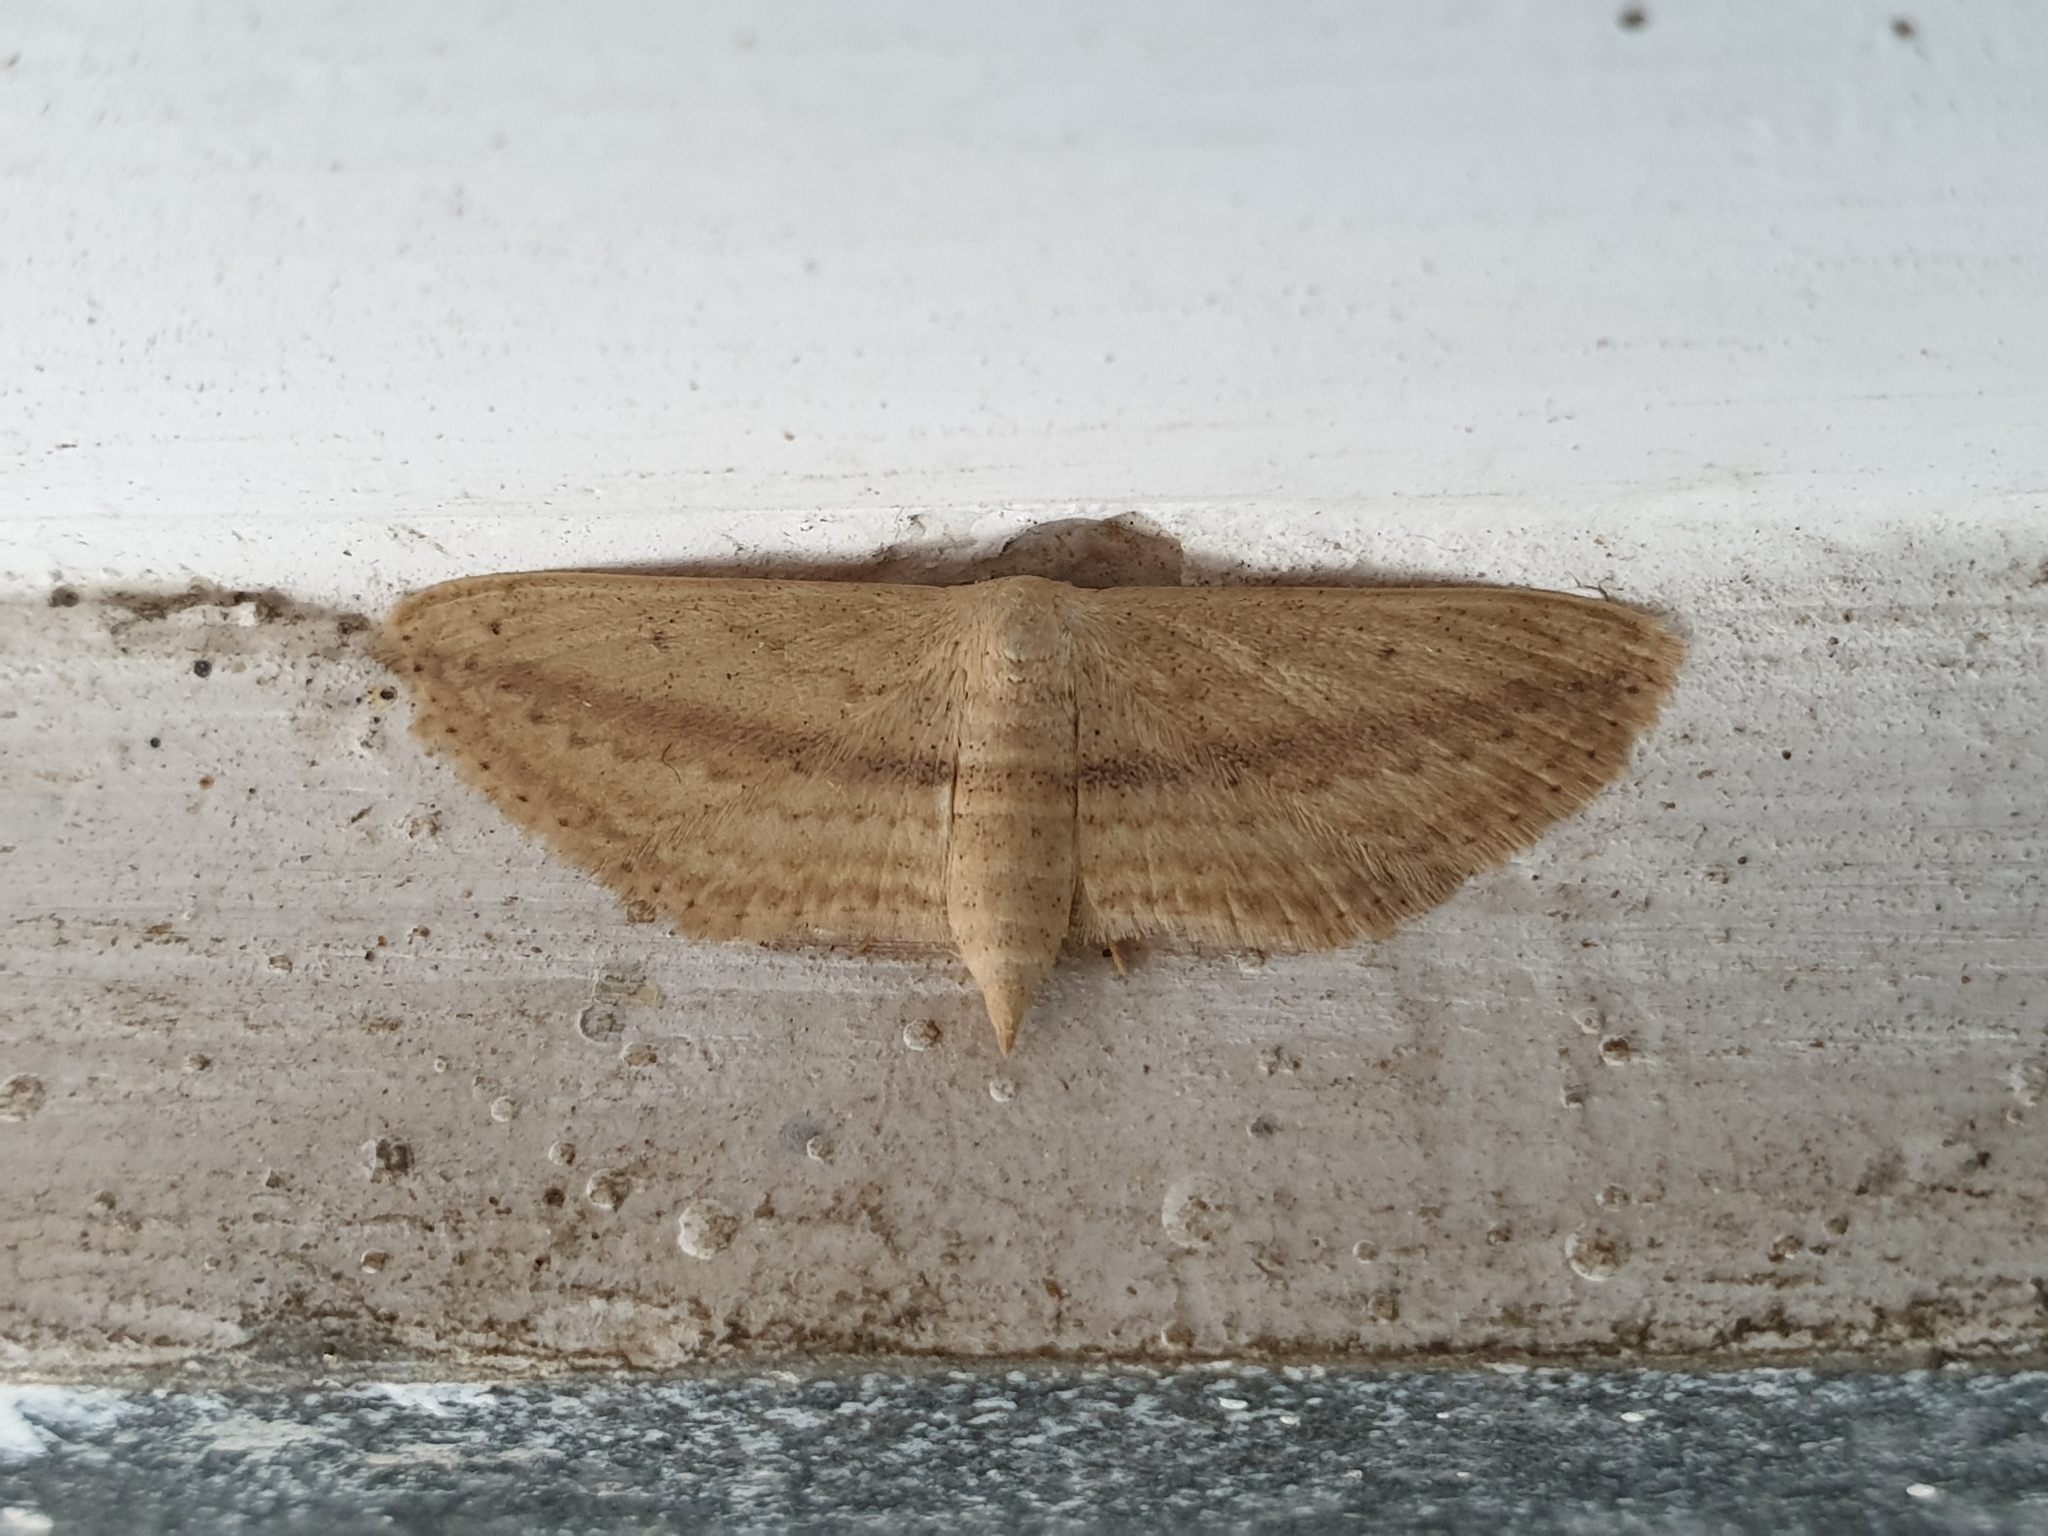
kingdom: Animalia
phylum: Arthropoda
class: Insecta
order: Lepidoptera
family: Geometridae
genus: Scopula
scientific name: Scopula emissaria
